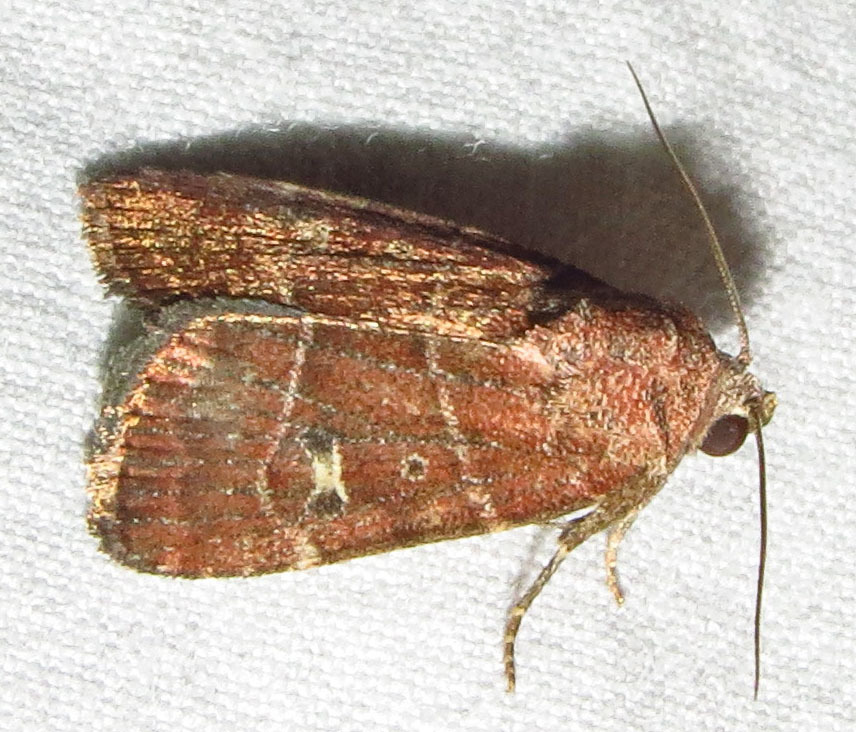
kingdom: Animalia
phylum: Arthropoda
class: Insecta
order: Lepidoptera
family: Noctuidae
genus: Elaphria
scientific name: Elaphria grata
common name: Grateful midget moth
